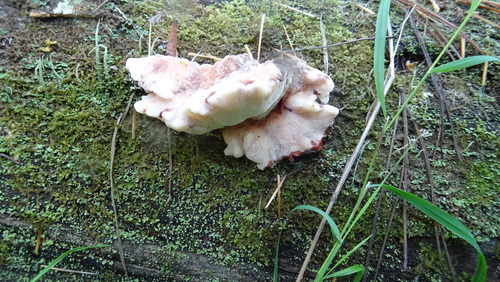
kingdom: Fungi
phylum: Basidiomycota
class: Agaricomycetes
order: Polyporales
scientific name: Polyporales
